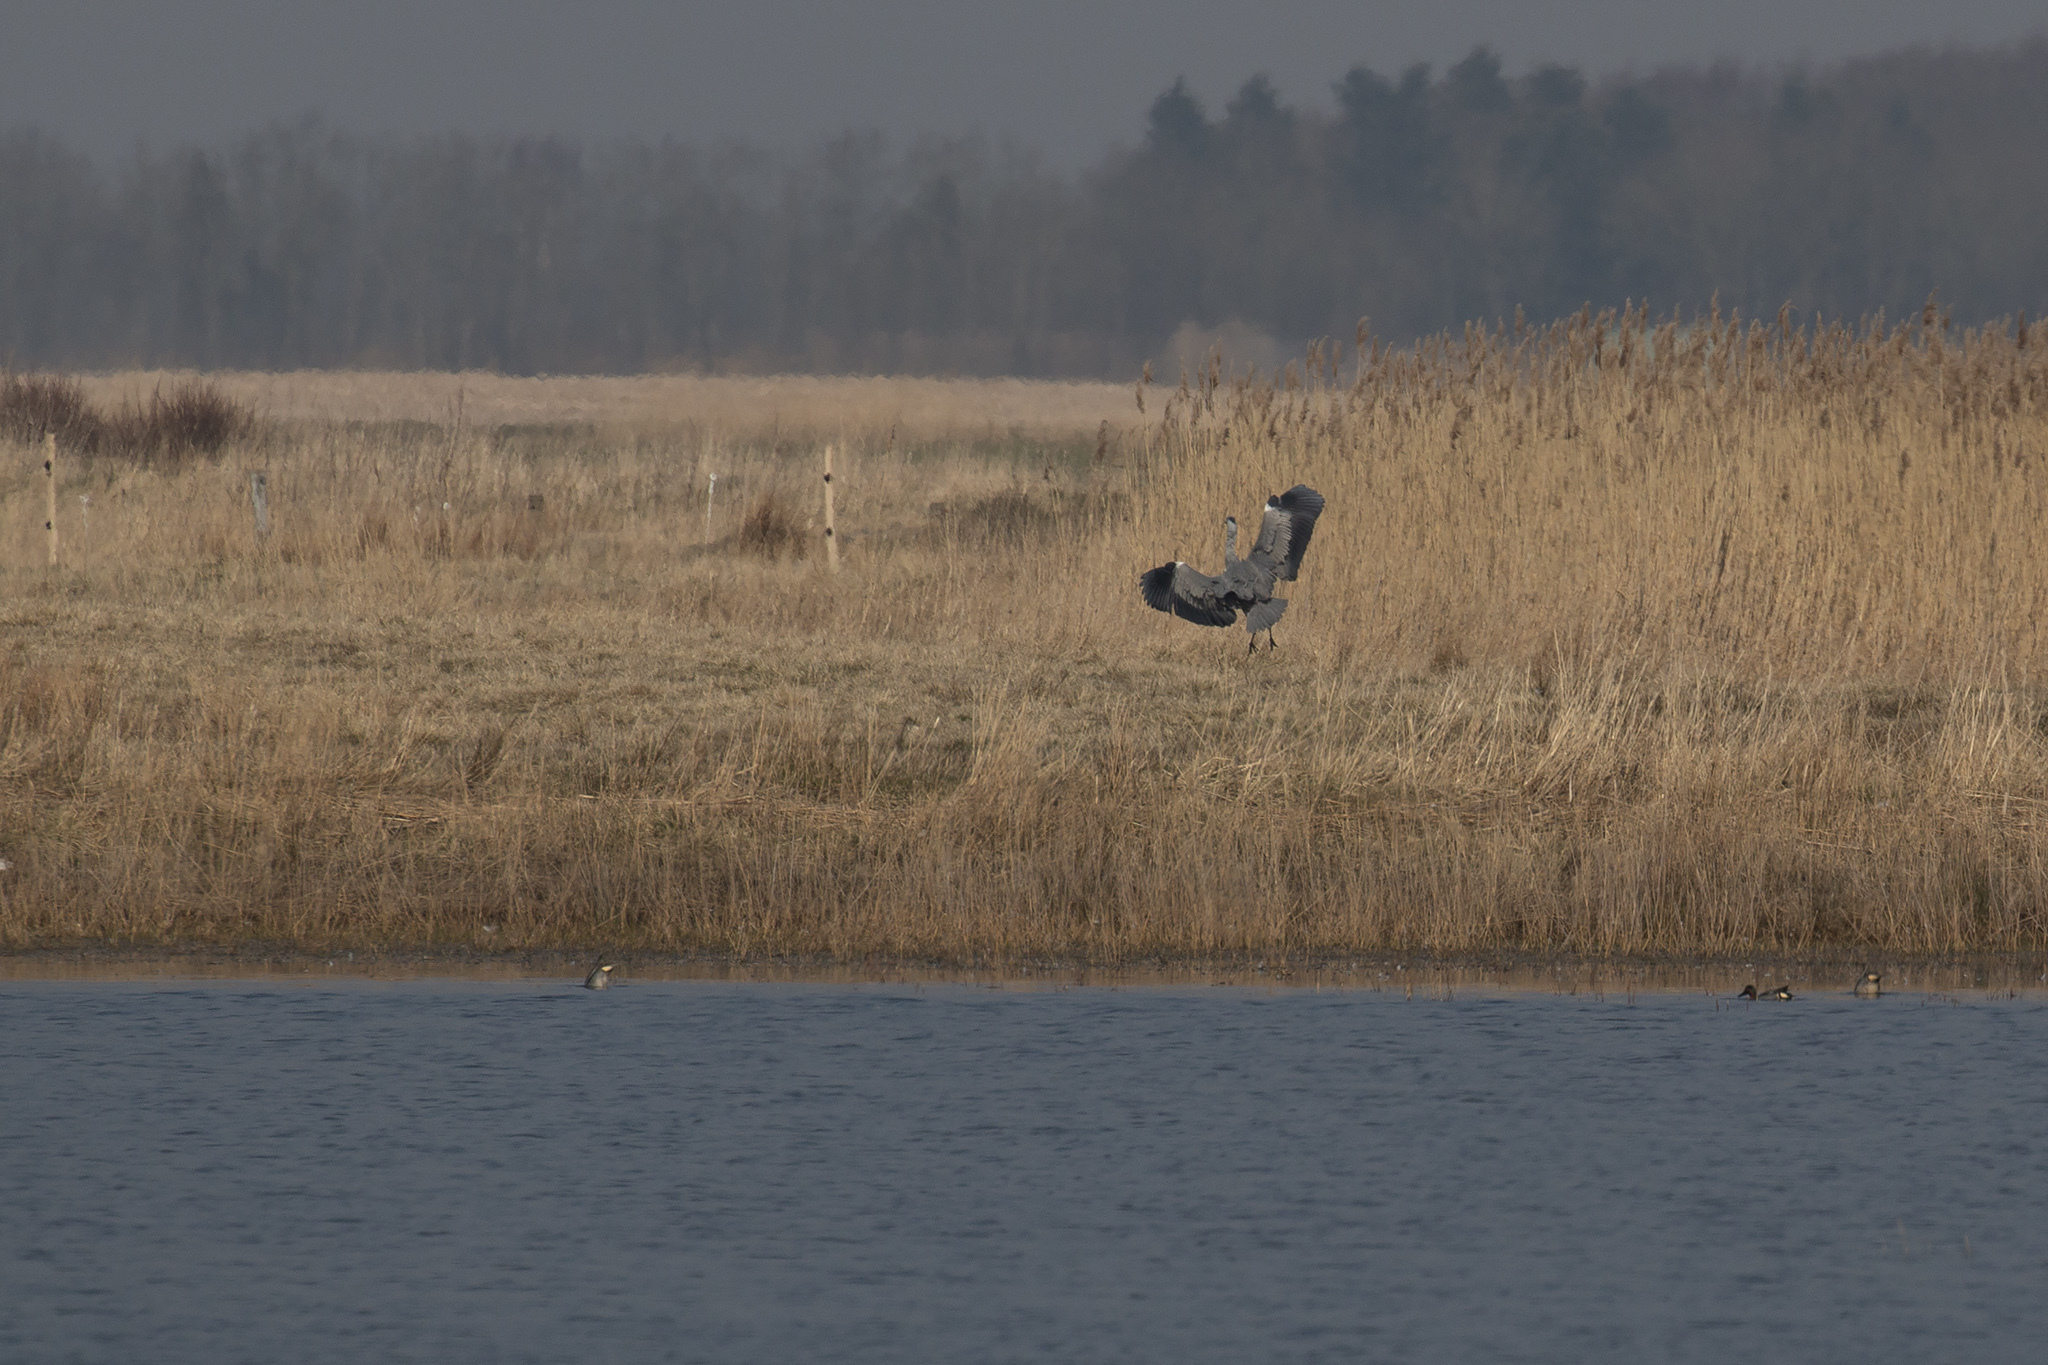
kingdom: Animalia
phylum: Chordata
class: Aves
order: Pelecaniformes
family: Ardeidae
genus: Ardea
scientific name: Ardea cinerea
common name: Grey heron
